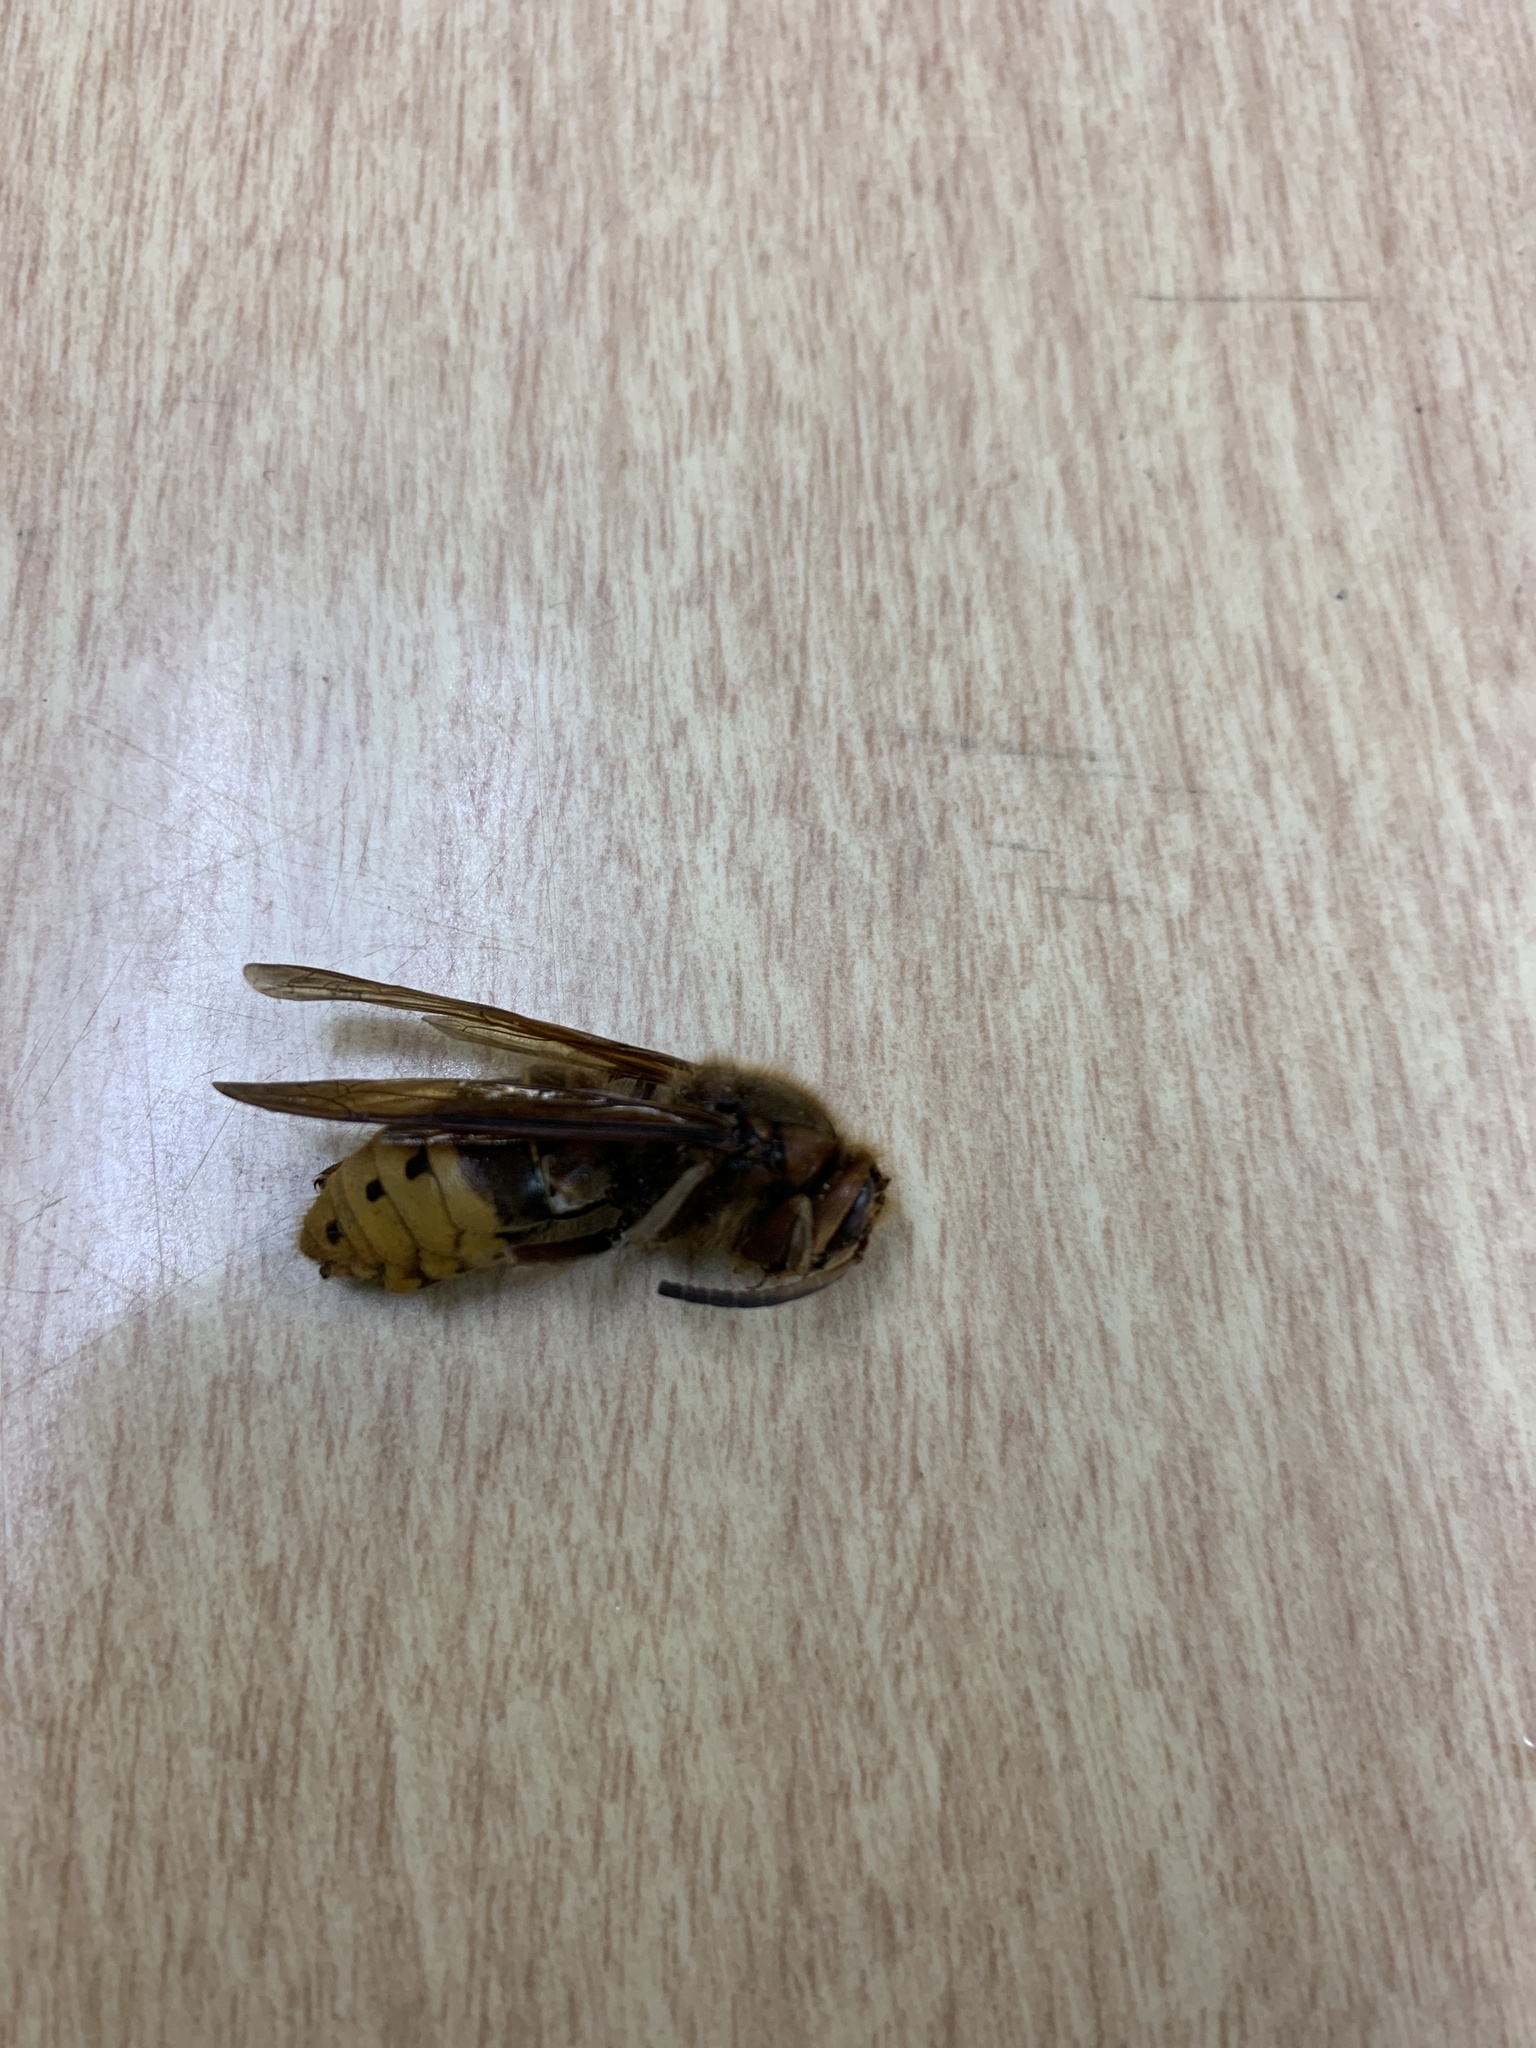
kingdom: Animalia
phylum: Arthropoda
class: Insecta
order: Hymenoptera
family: Vespidae
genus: Vespa
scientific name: Vespa crabro
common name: Hornet
